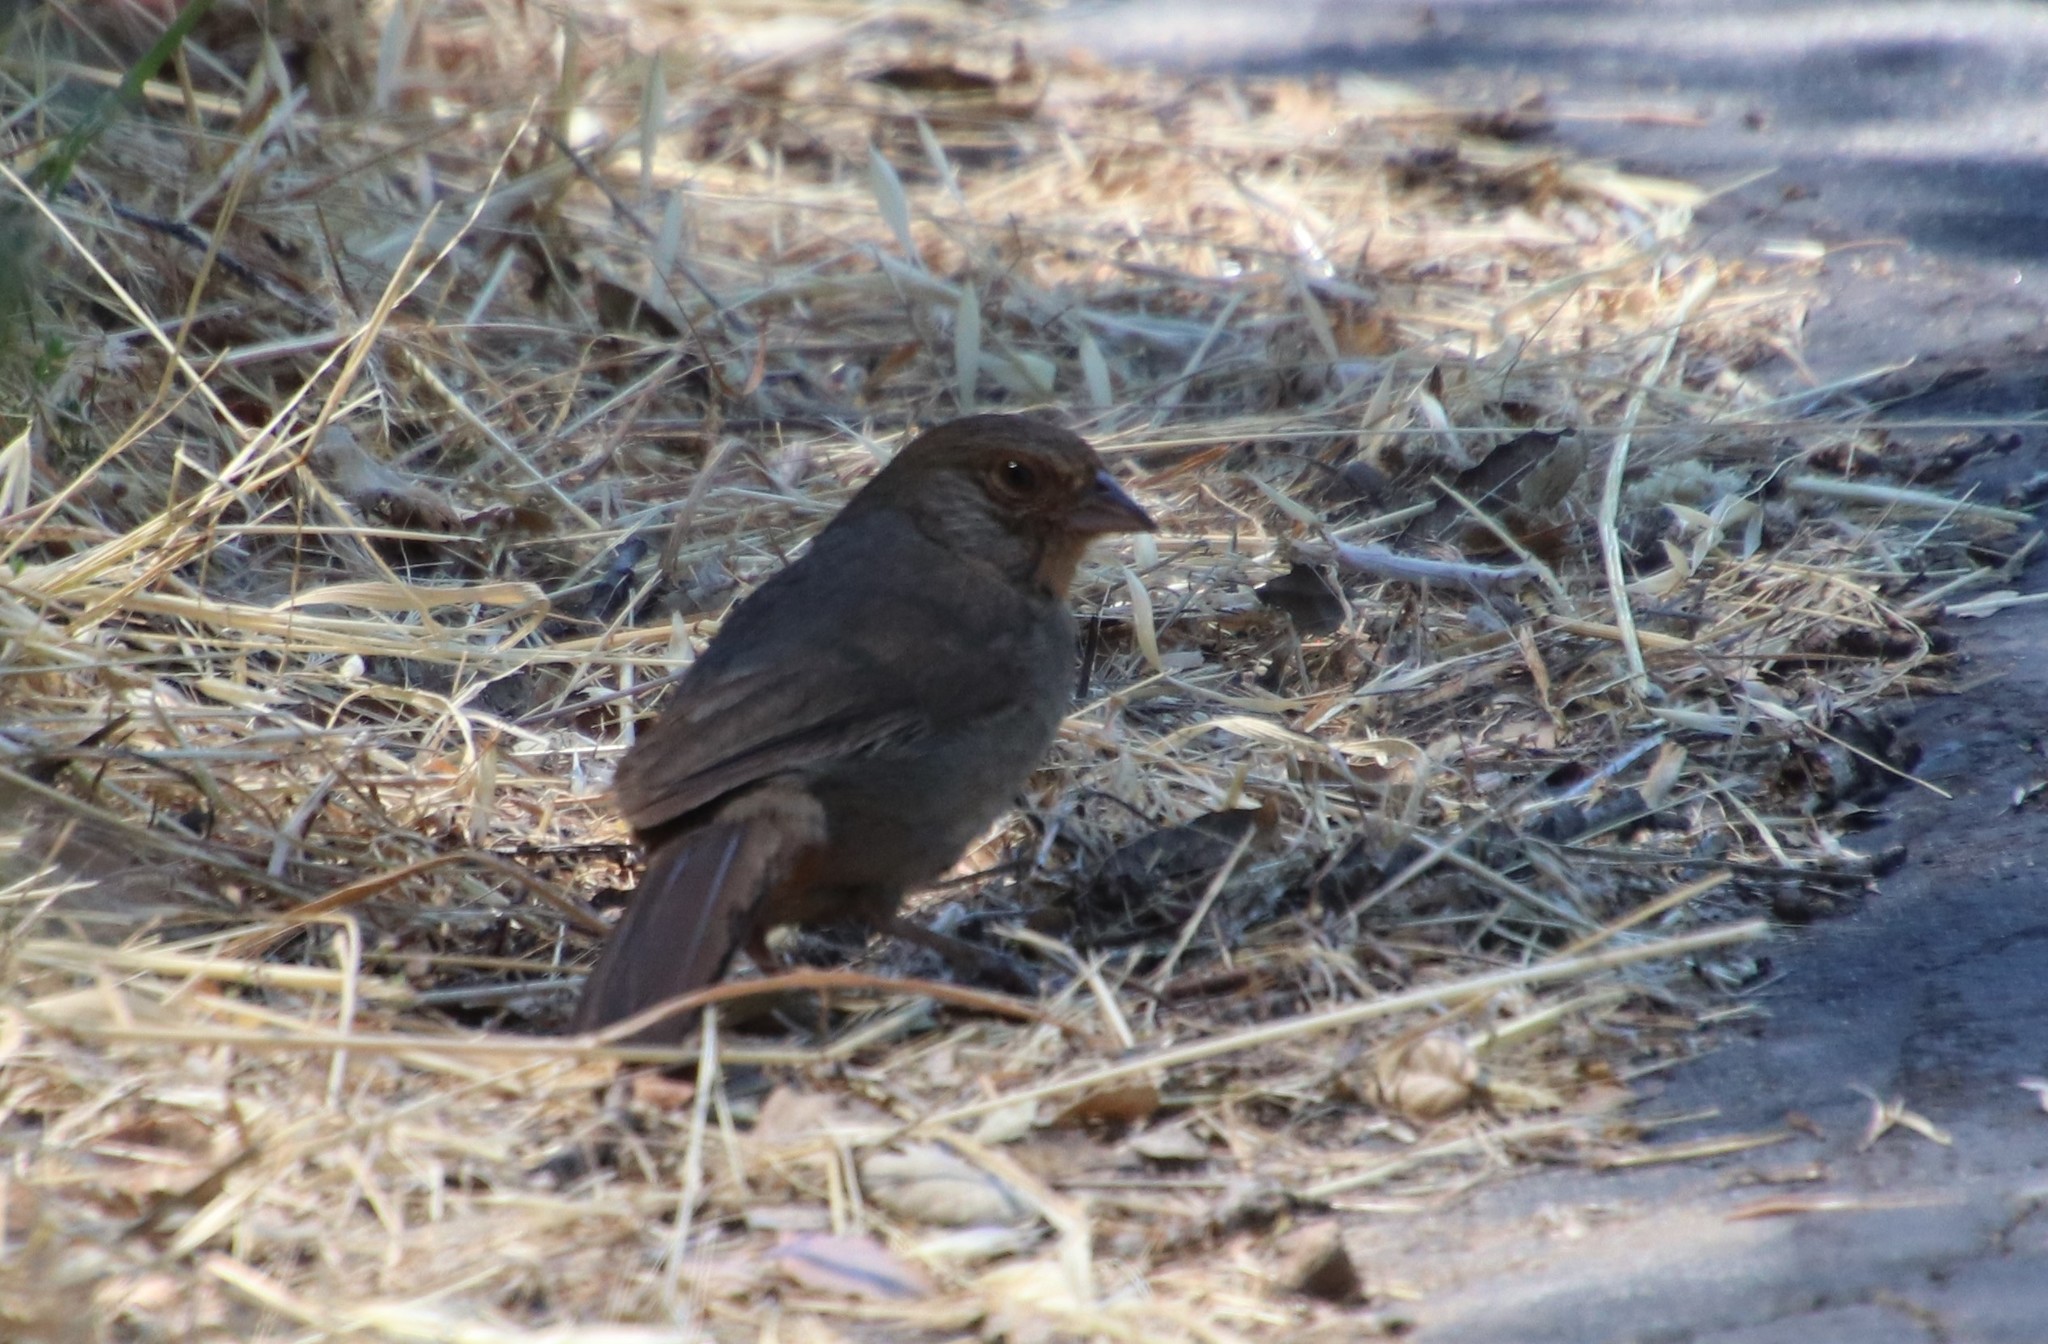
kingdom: Animalia
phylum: Chordata
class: Aves
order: Passeriformes
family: Passerellidae
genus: Melozone
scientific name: Melozone crissalis
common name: California towhee
